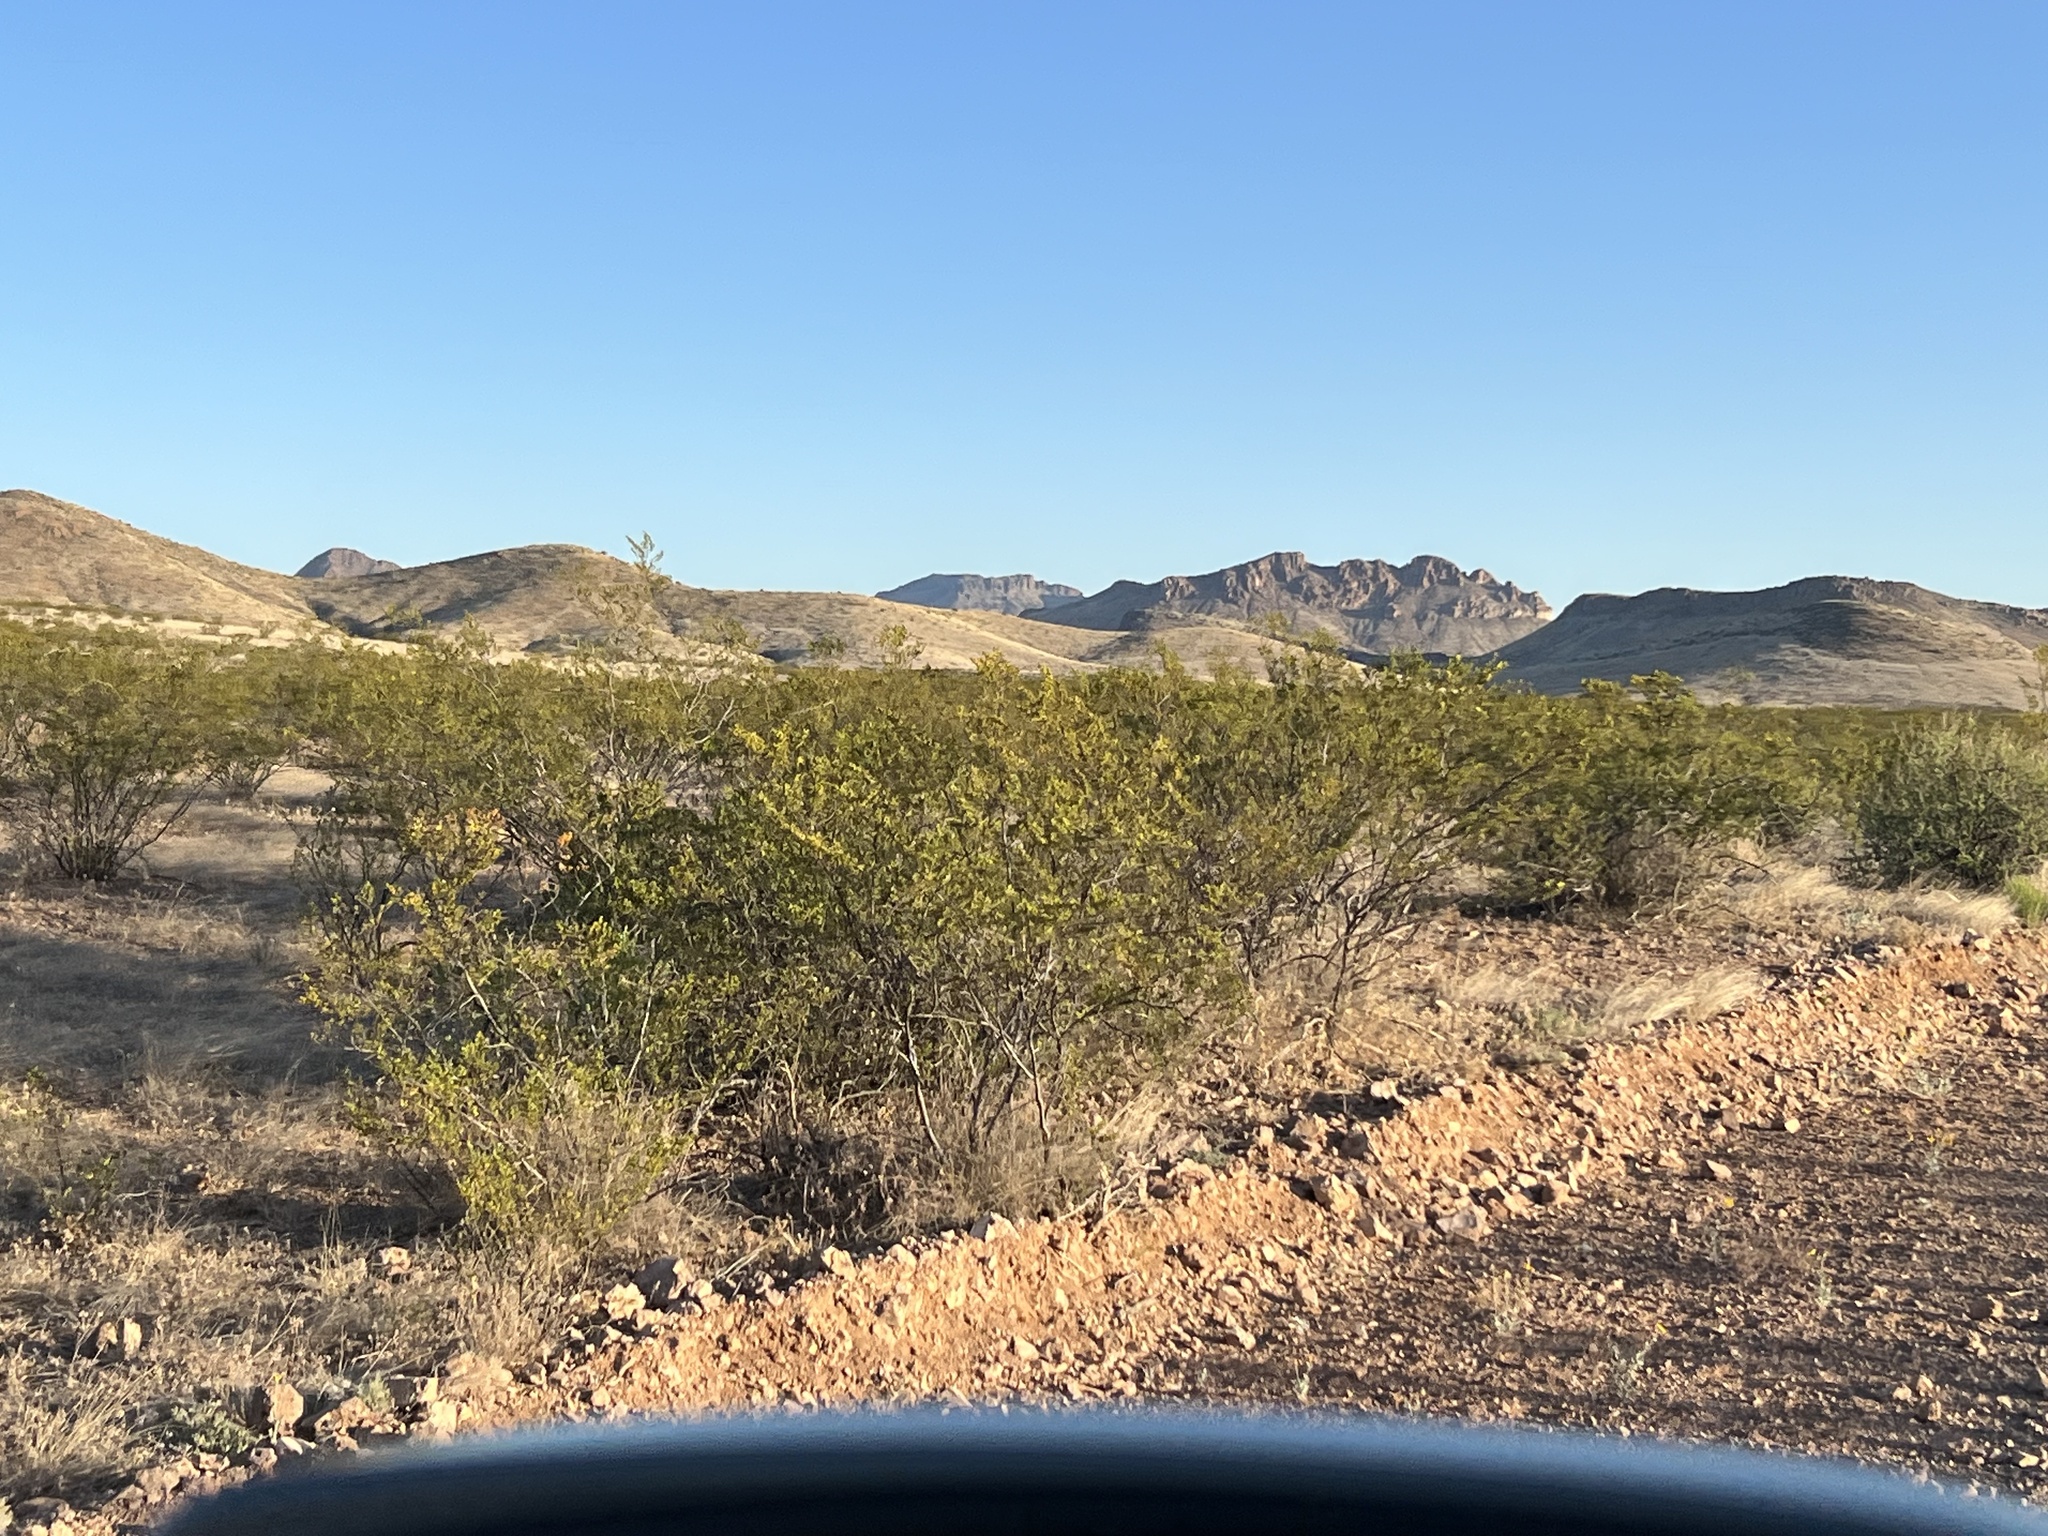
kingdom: Plantae
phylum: Tracheophyta
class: Magnoliopsida
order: Zygophyllales
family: Zygophyllaceae
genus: Larrea
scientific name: Larrea tridentata
